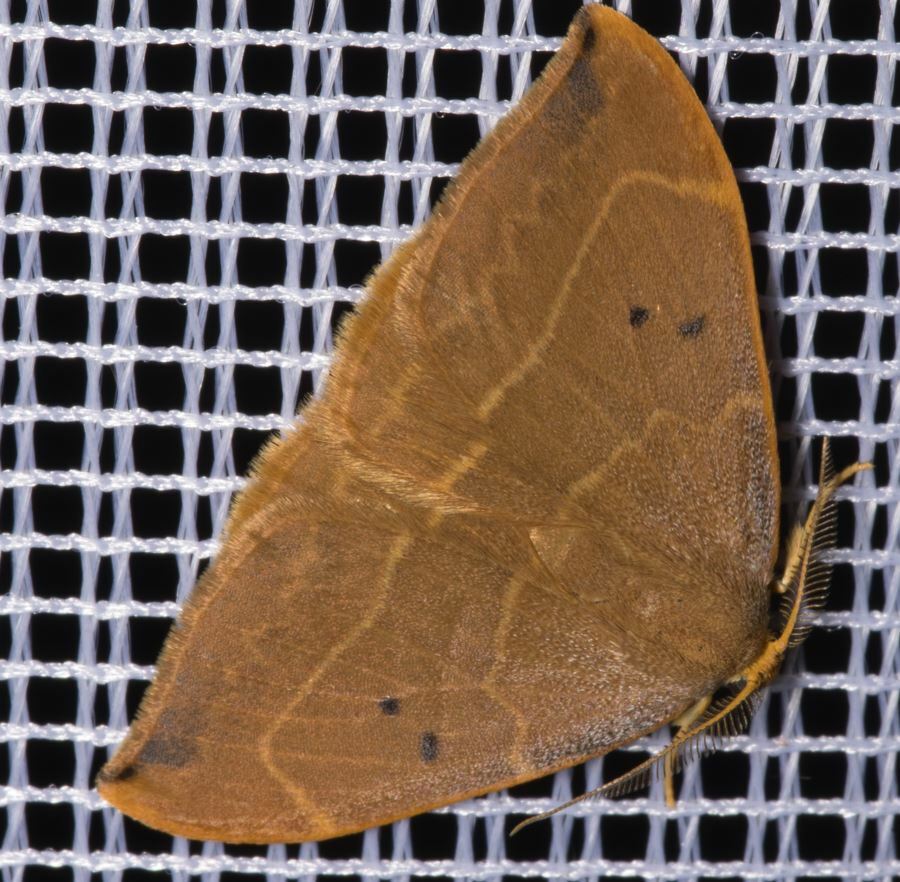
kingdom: Animalia
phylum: Arthropoda
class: Insecta
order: Lepidoptera
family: Drepanidae
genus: Watsonalla
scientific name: Watsonalla binaria
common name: Oak hook-tip
